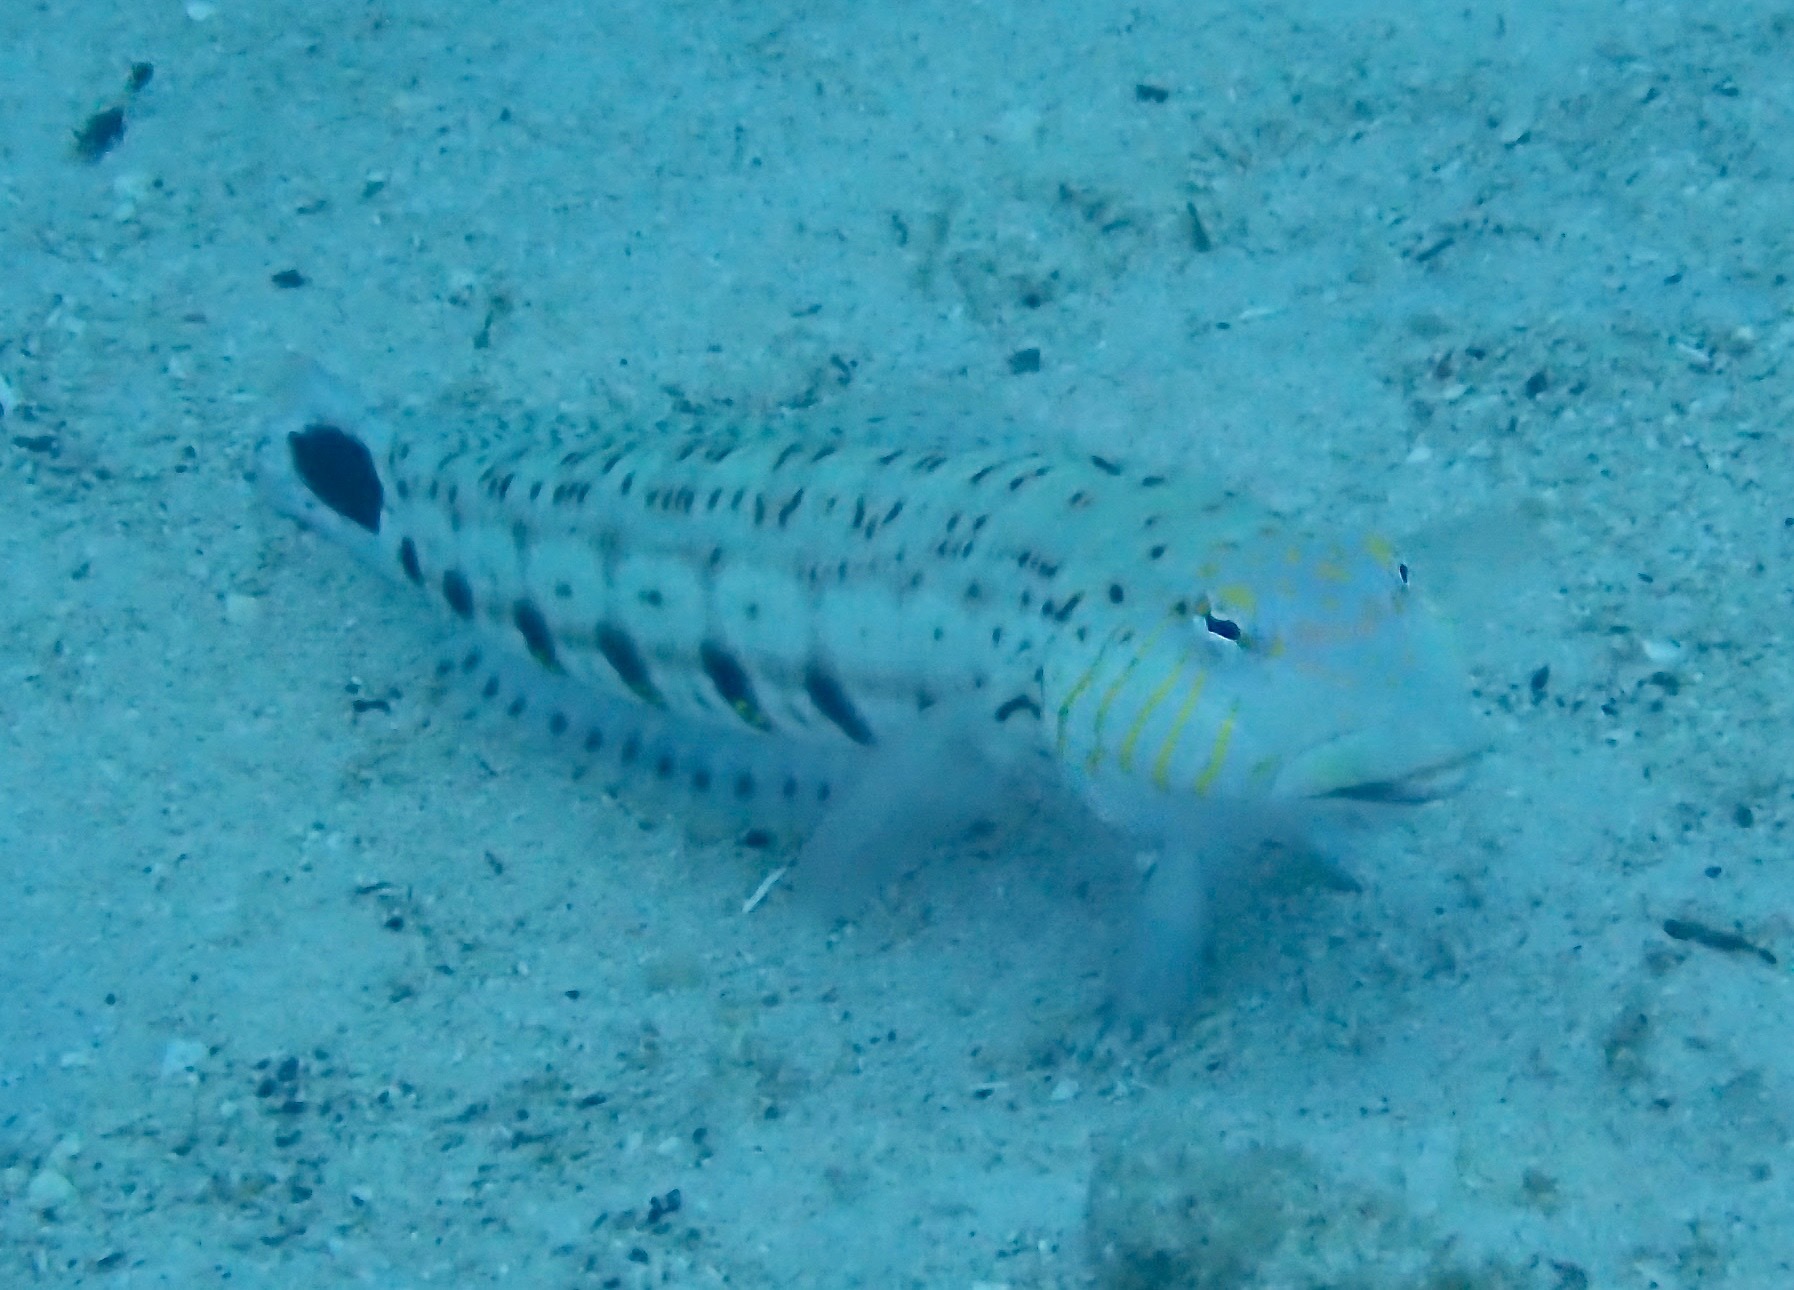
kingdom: Animalia
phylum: Chordata
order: Perciformes
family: Pinguipedidae
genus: Parapercis
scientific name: Parapercis xanthogramma
